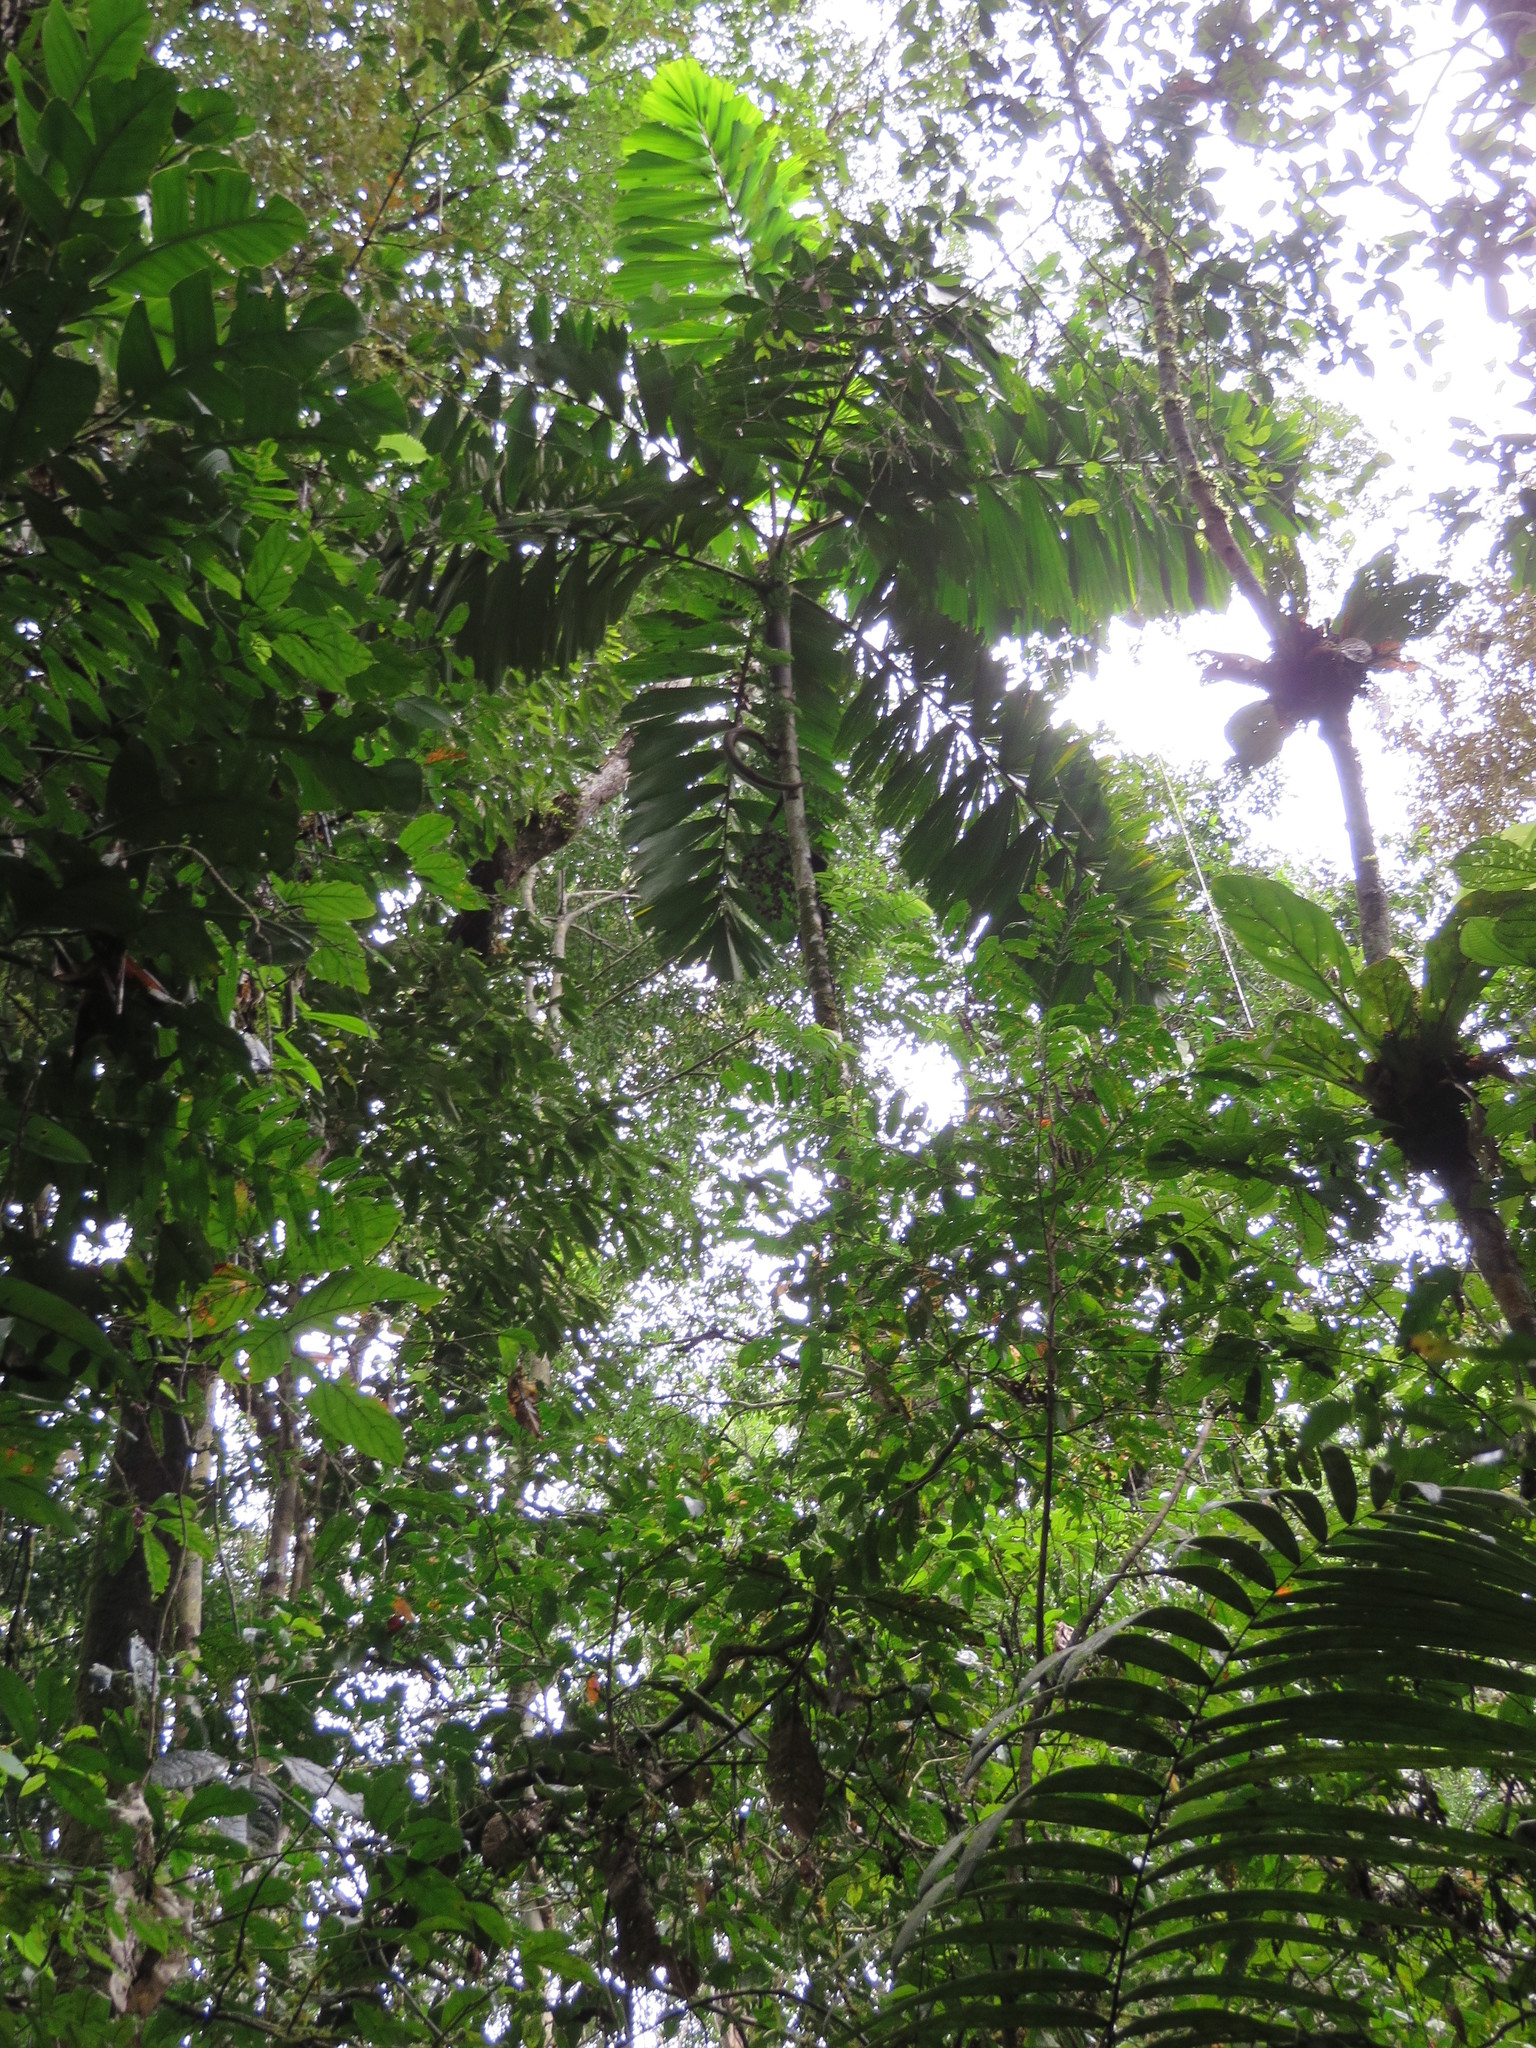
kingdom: Plantae
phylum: Tracheophyta
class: Liliopsida
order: Arecales
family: Arecaceae
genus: Iriartea
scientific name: Iriartea deltoidea
